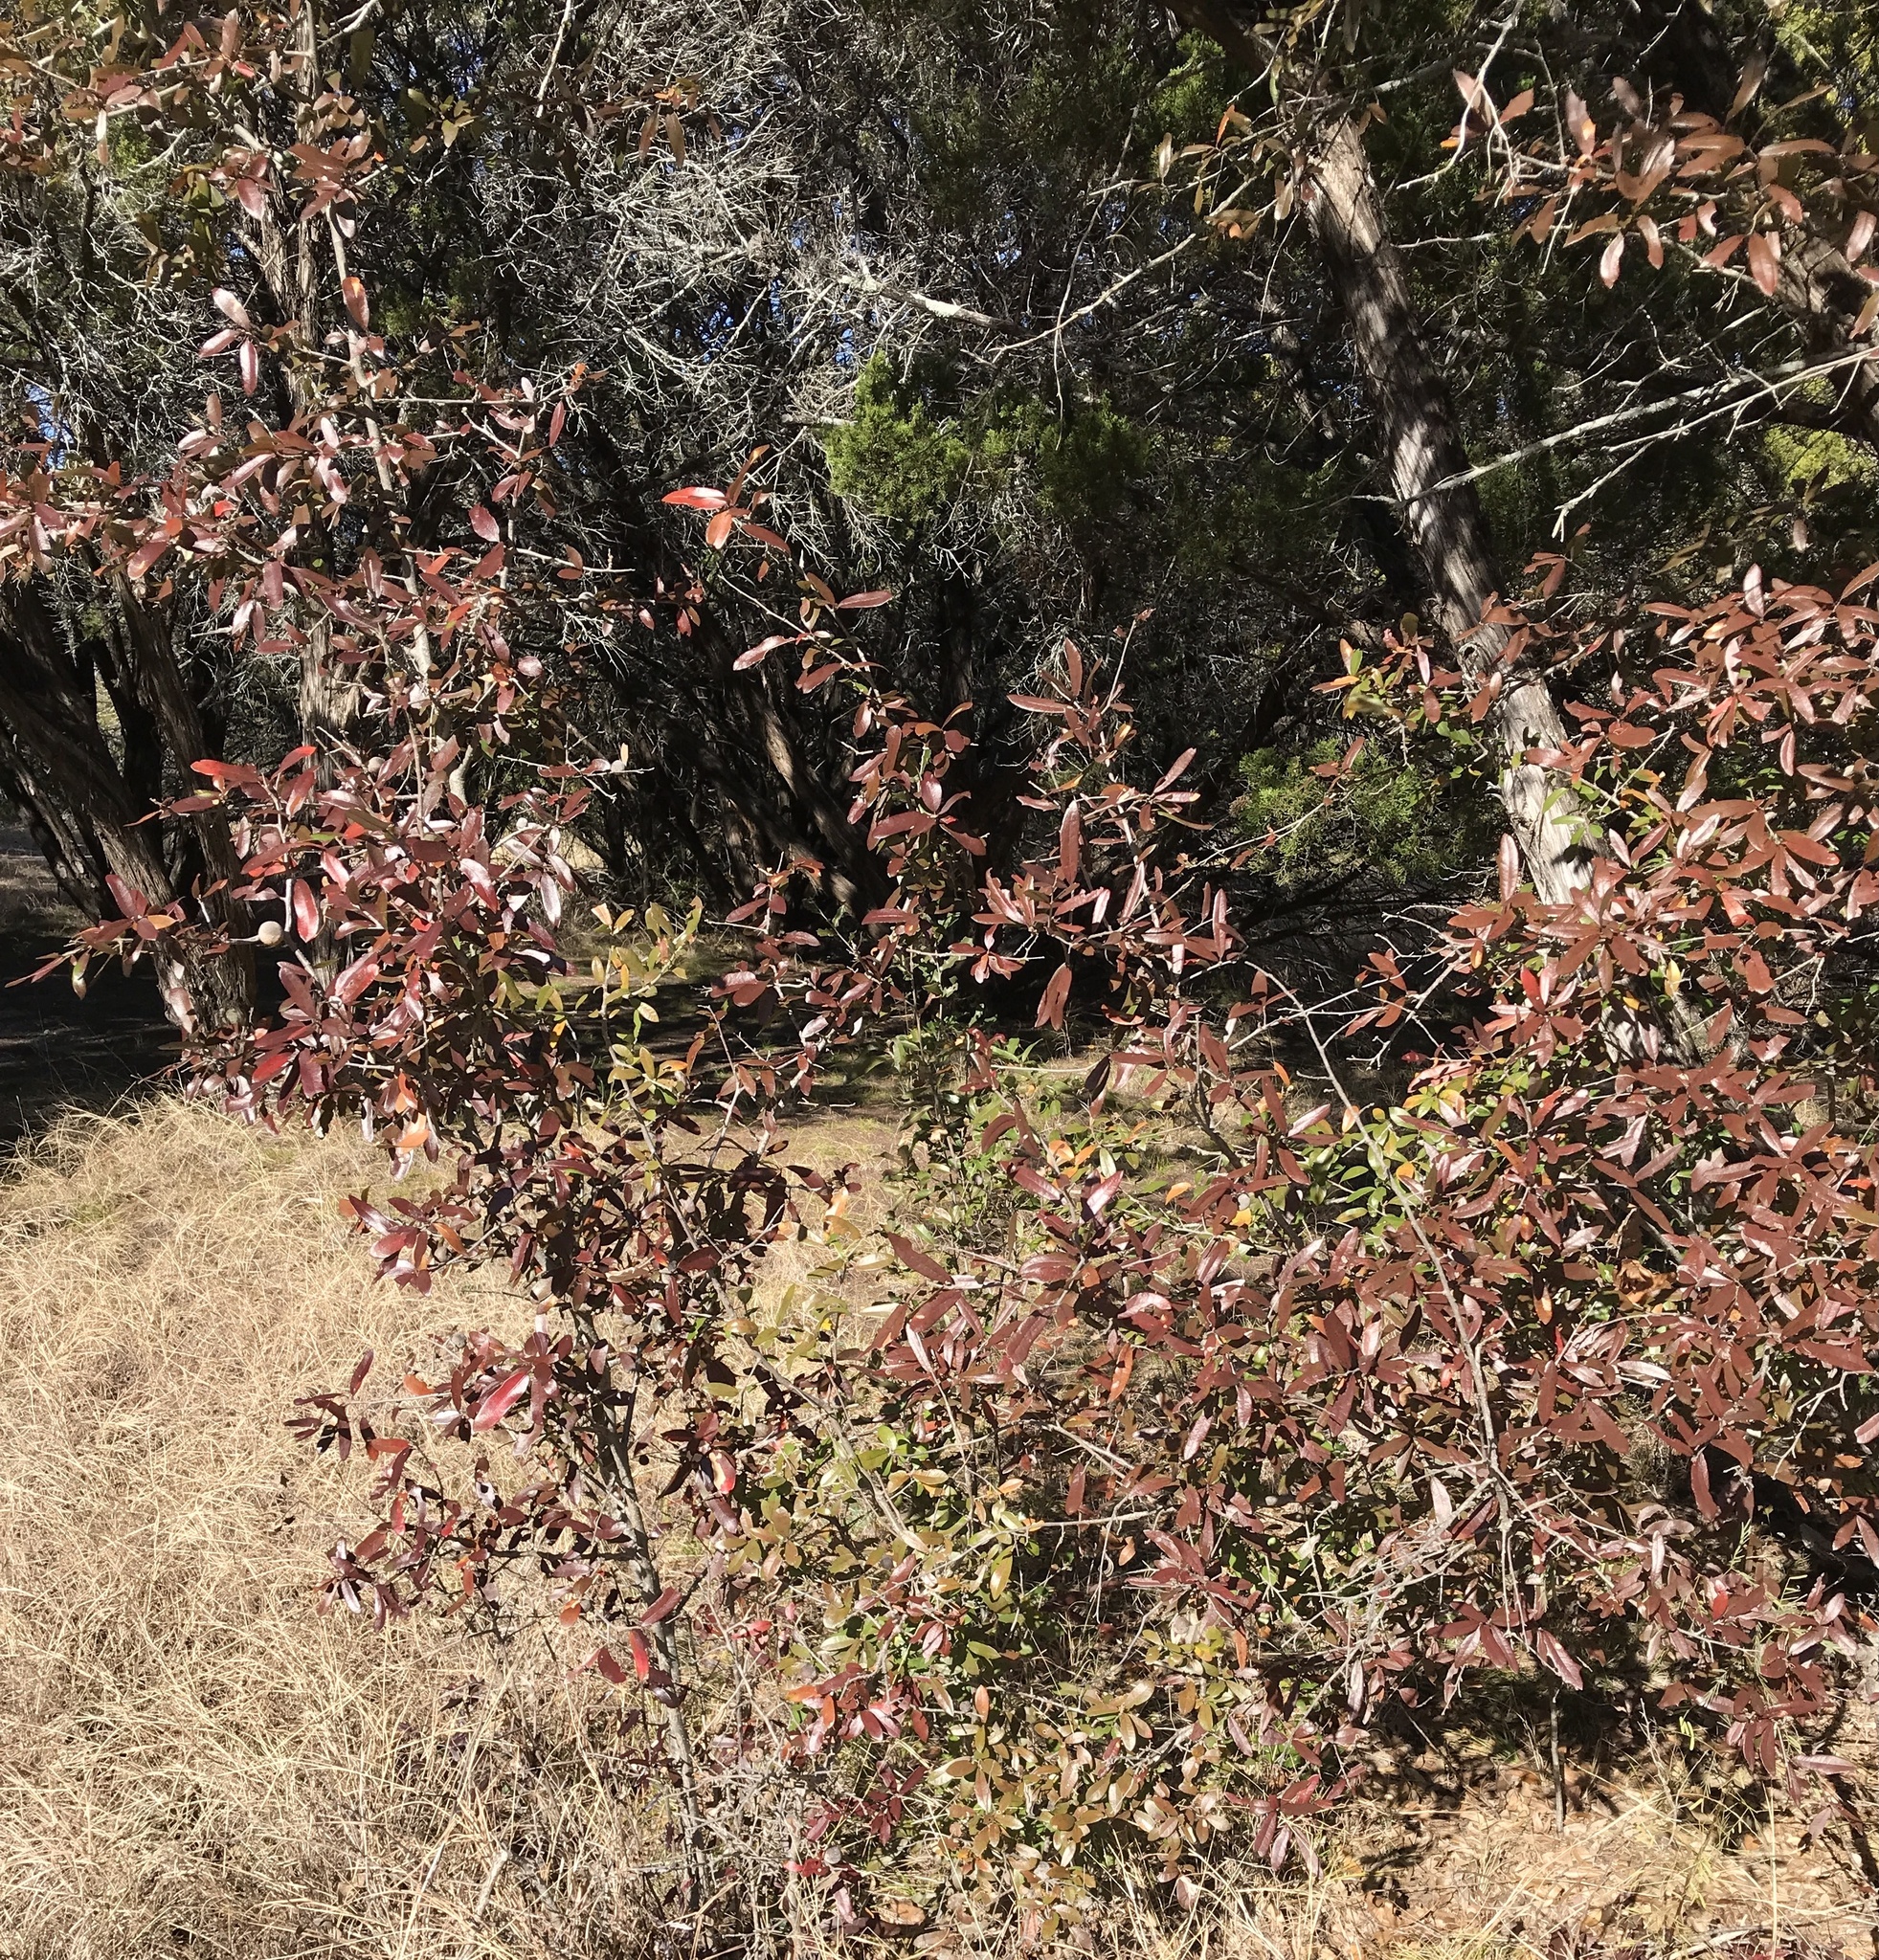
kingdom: Plantae
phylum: Tracheophyta
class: Magnoliopsida
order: Fagales
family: Fagaceae
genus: Quercus
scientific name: Quercus fusiformis
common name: Texas live oak
